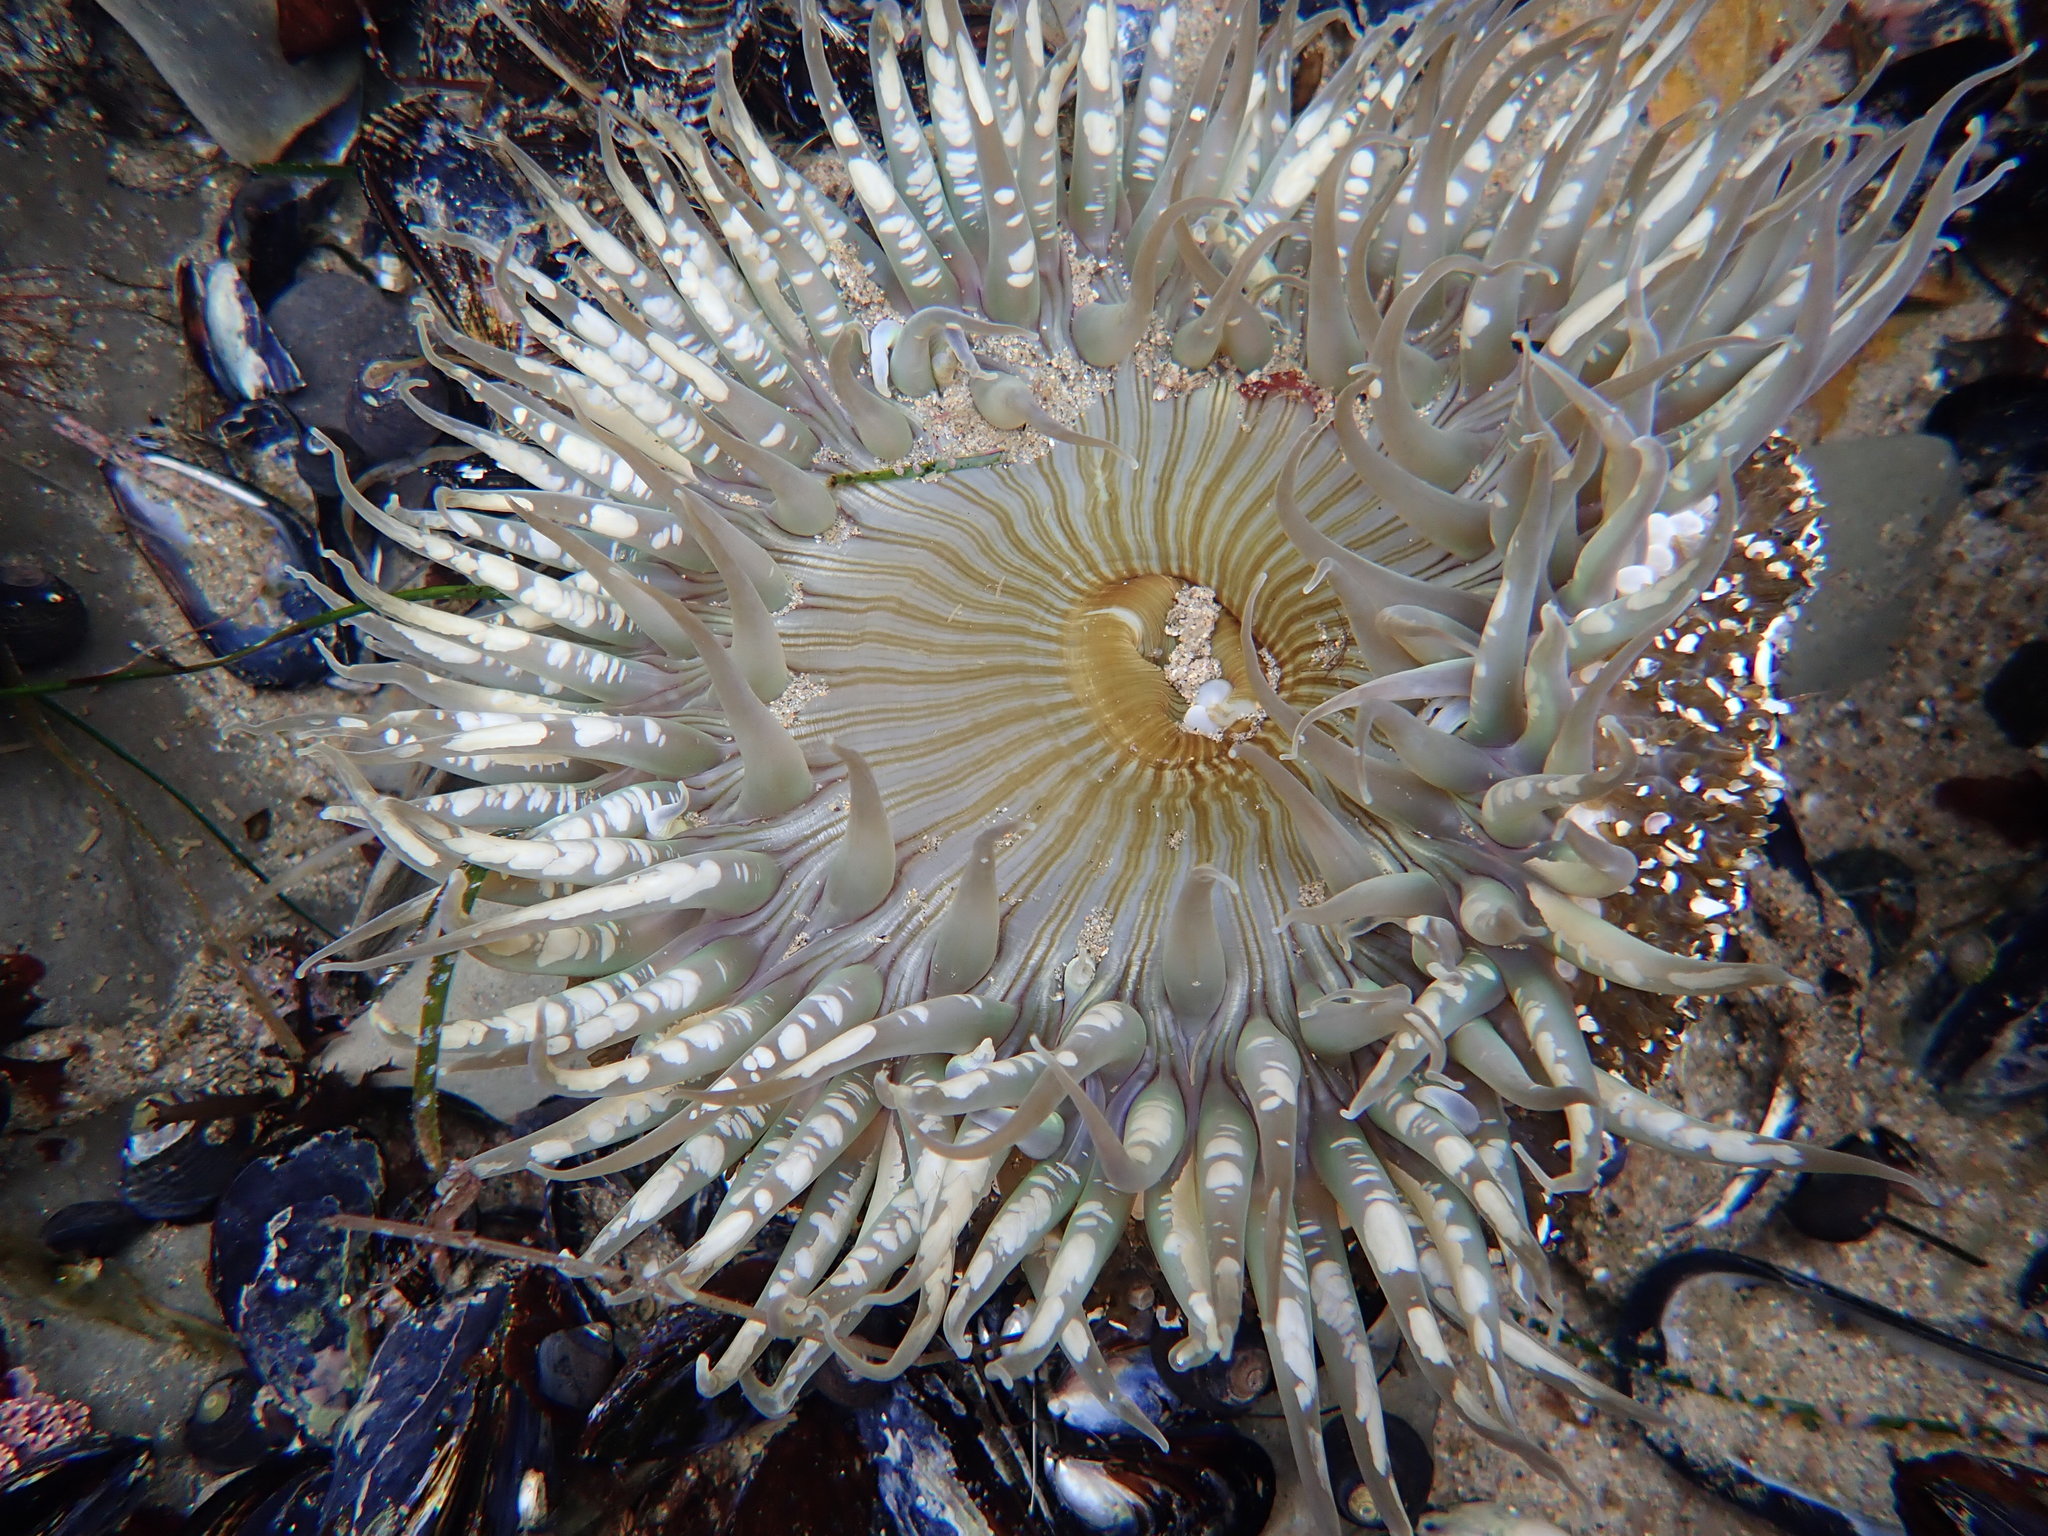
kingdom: Animalia
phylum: Cnidaria
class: Anthozoa
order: Actiniaria
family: Actiniidae
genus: Anthopleura
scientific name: Anthopleura sola
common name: Sun anemone
